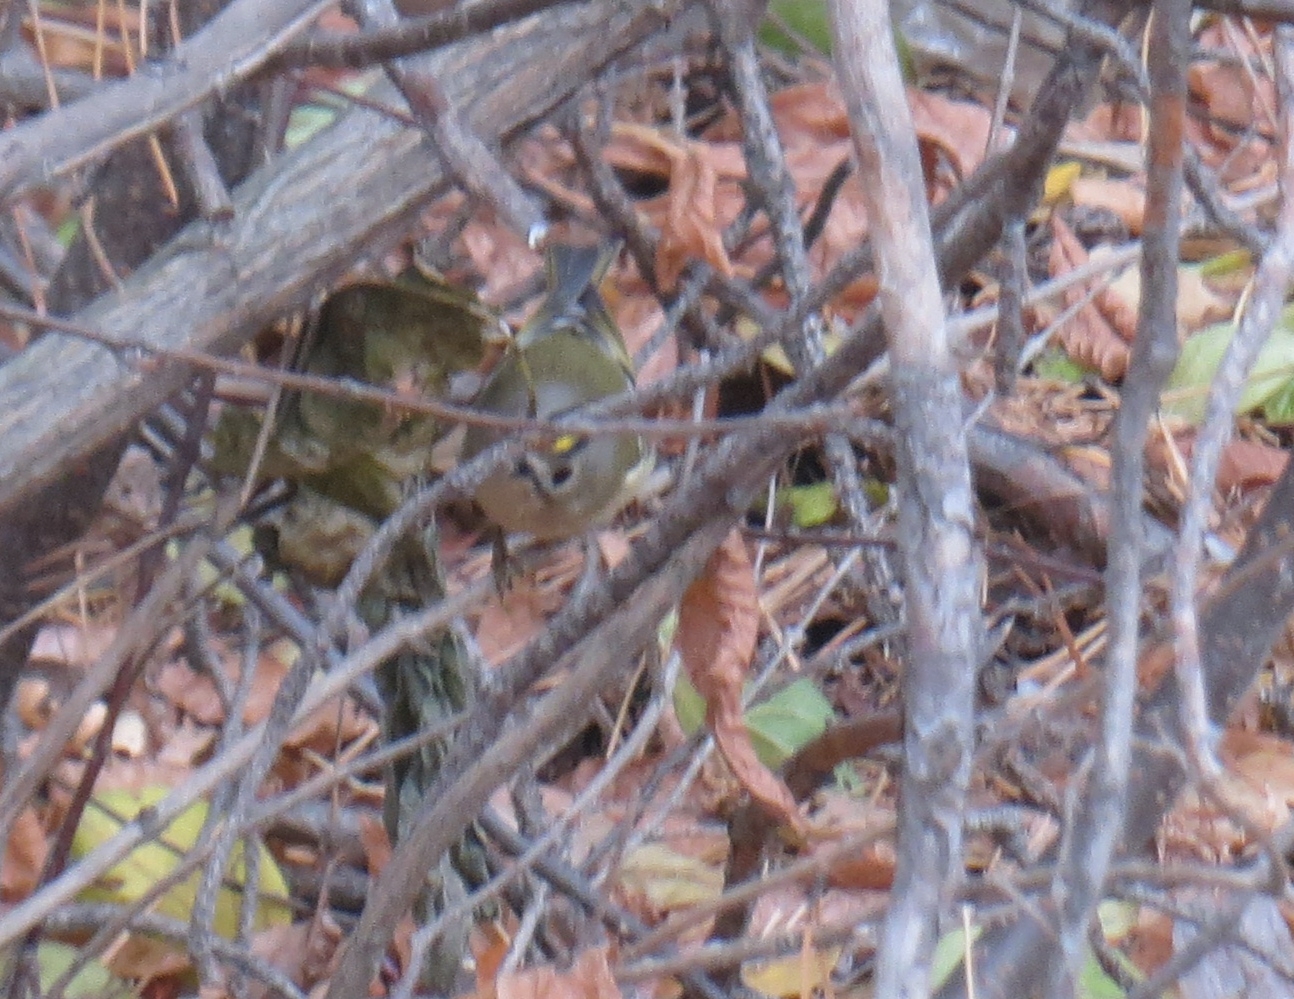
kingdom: Animalia
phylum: Chordata
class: Aves
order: Passeriformes
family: Regulidae
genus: Regulus
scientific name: Regulus regulus
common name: Goldcrest
